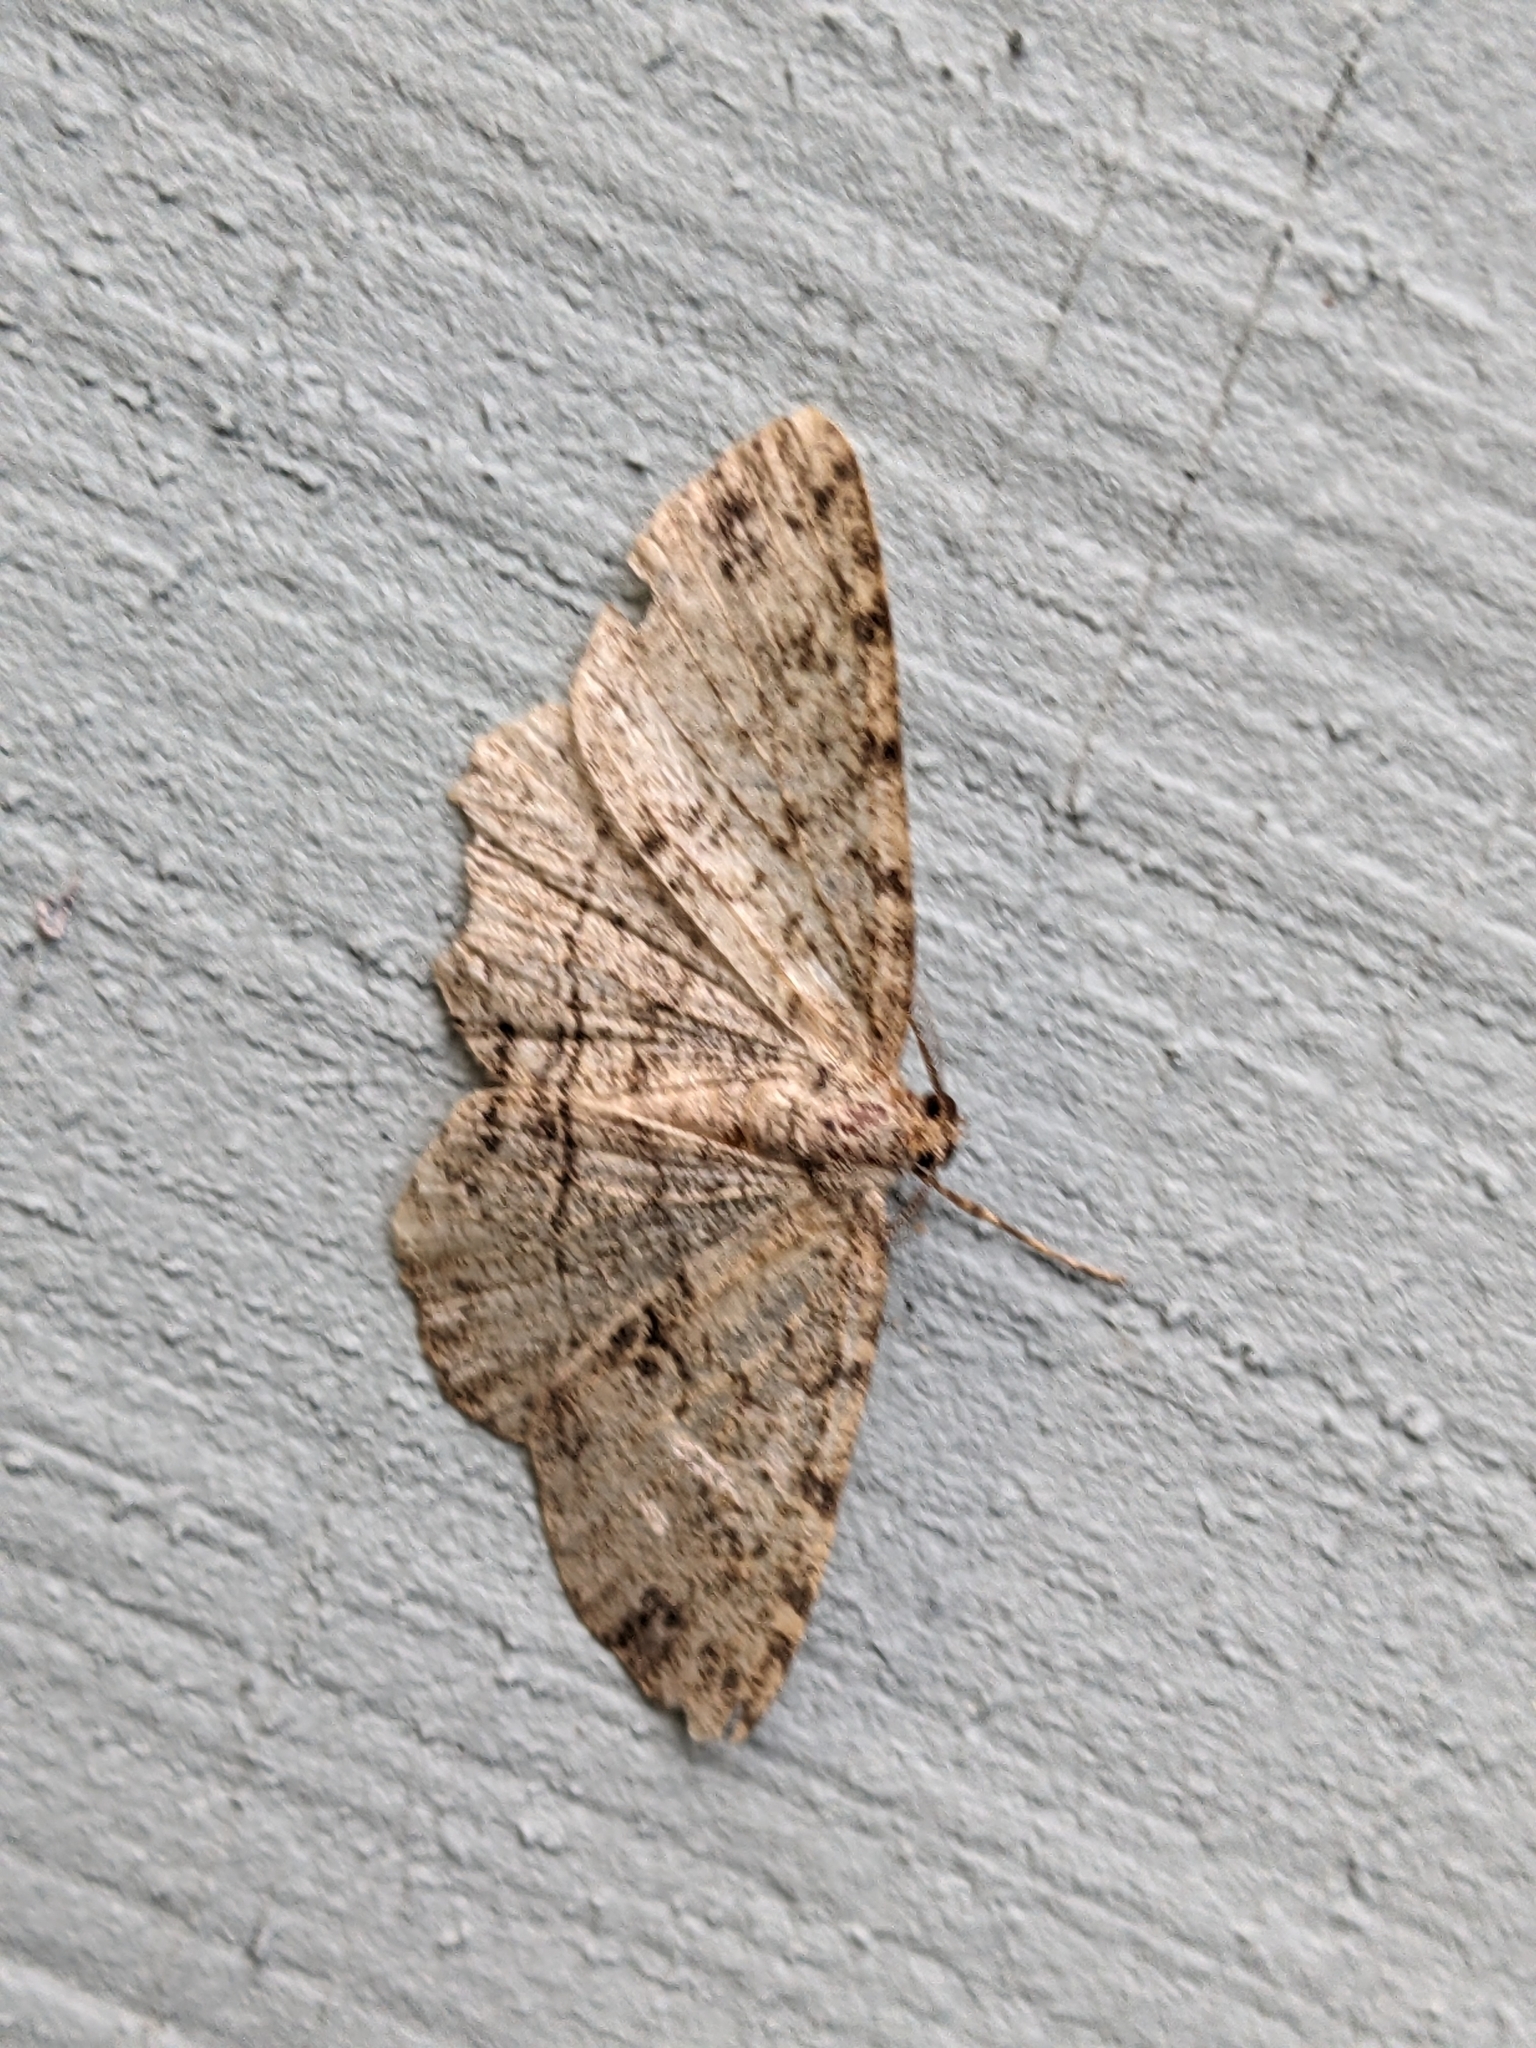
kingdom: Animalia
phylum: Arthropoda
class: Insecta
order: Lepidoptera
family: Geometridae
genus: Melanolophia
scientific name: Melanolophia canadaria
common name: Canadian melanolophia
